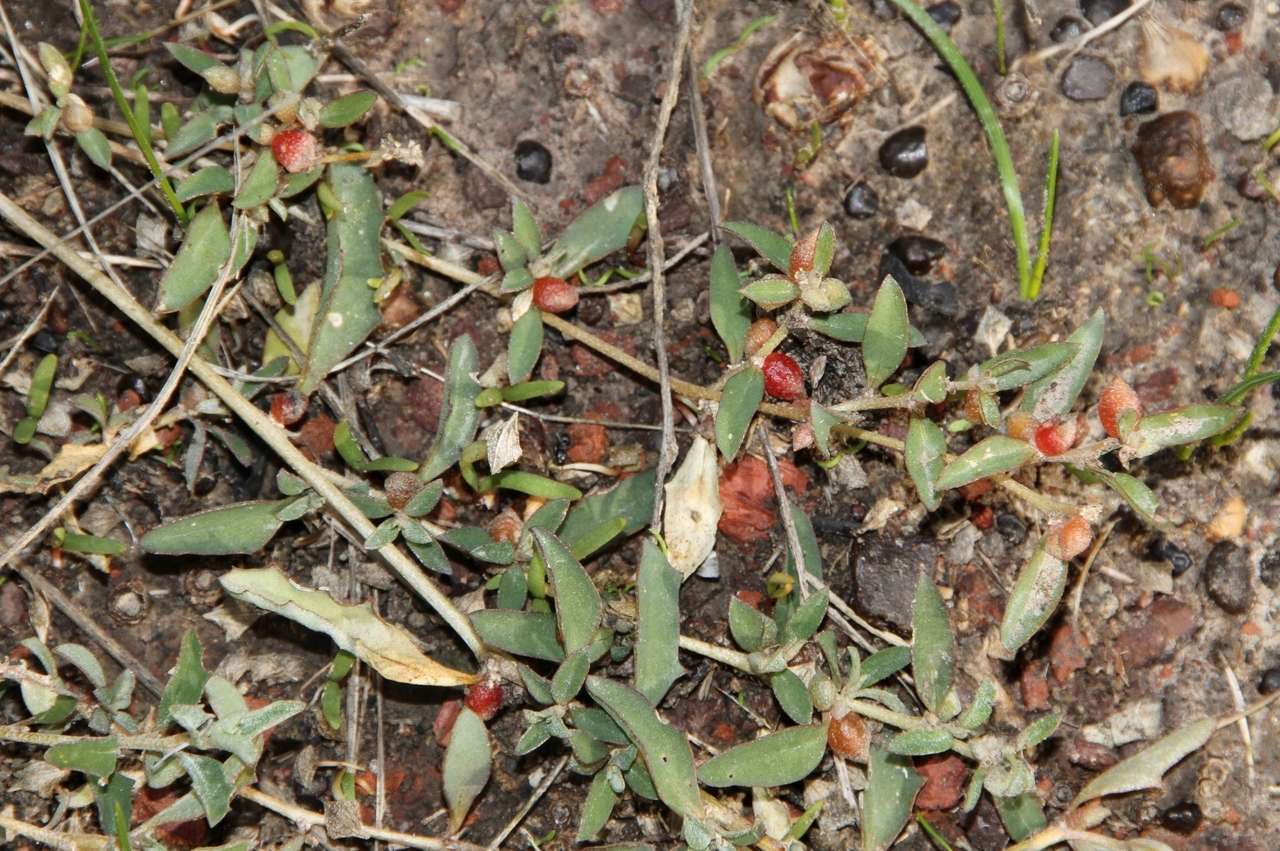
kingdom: Plantae
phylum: Tracheophyta
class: Magnoliopsida
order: Caryophyllales
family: Amaranthaceae
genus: Atriplex
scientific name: Atriplex semibaccata
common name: Australian saltbush
